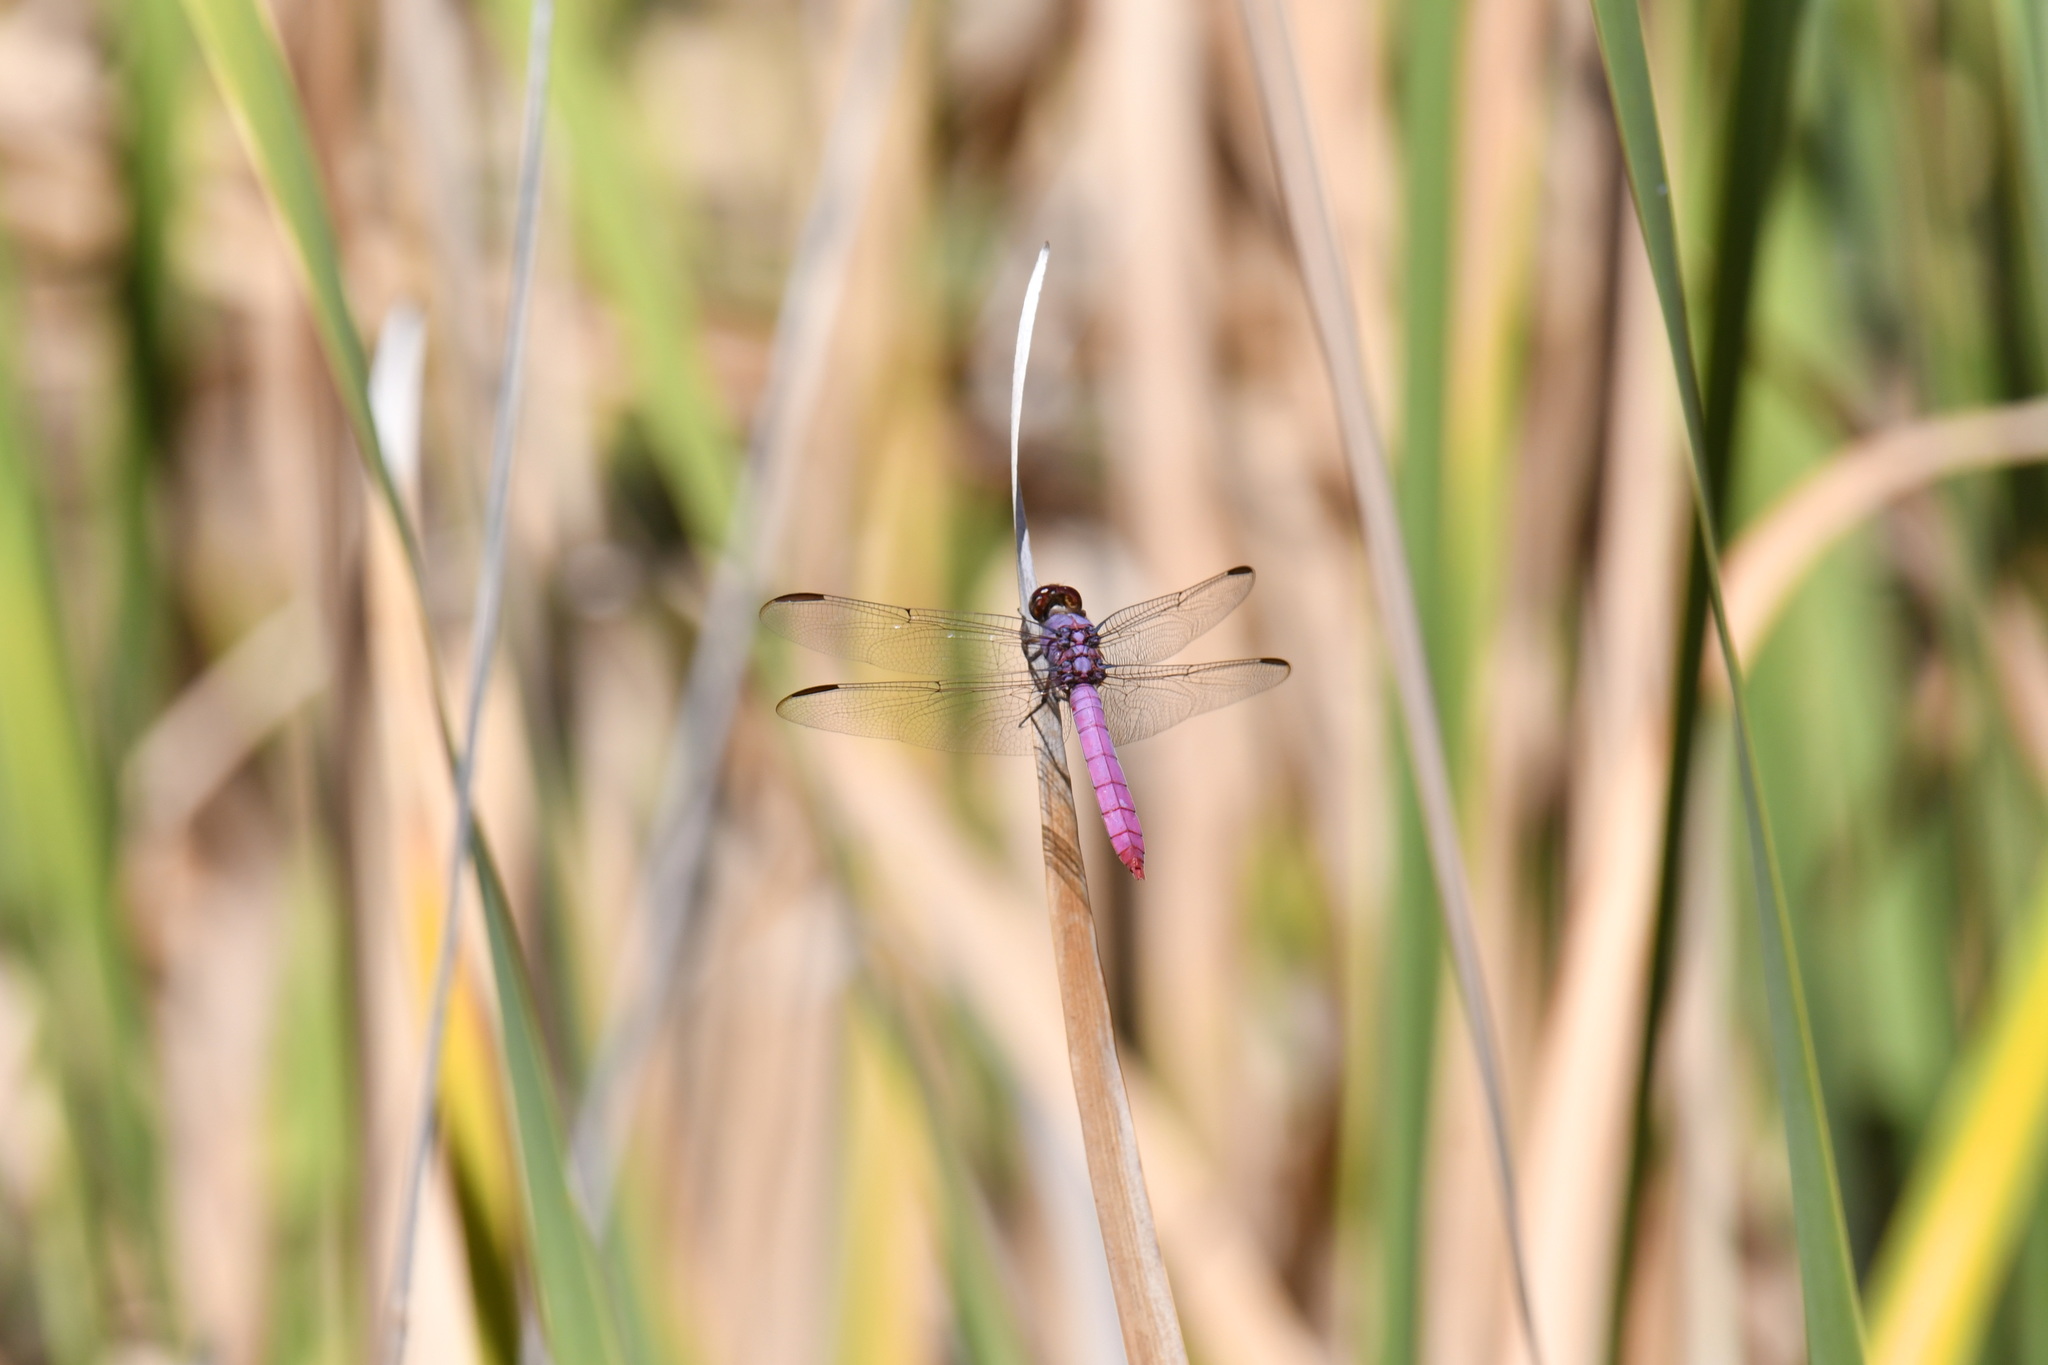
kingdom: Animalia
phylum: Arthropoda
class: Insecta
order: Odonata
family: Libellulidae
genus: Orthemis
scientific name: Orthemis ferruginea
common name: Roseate skimmer
